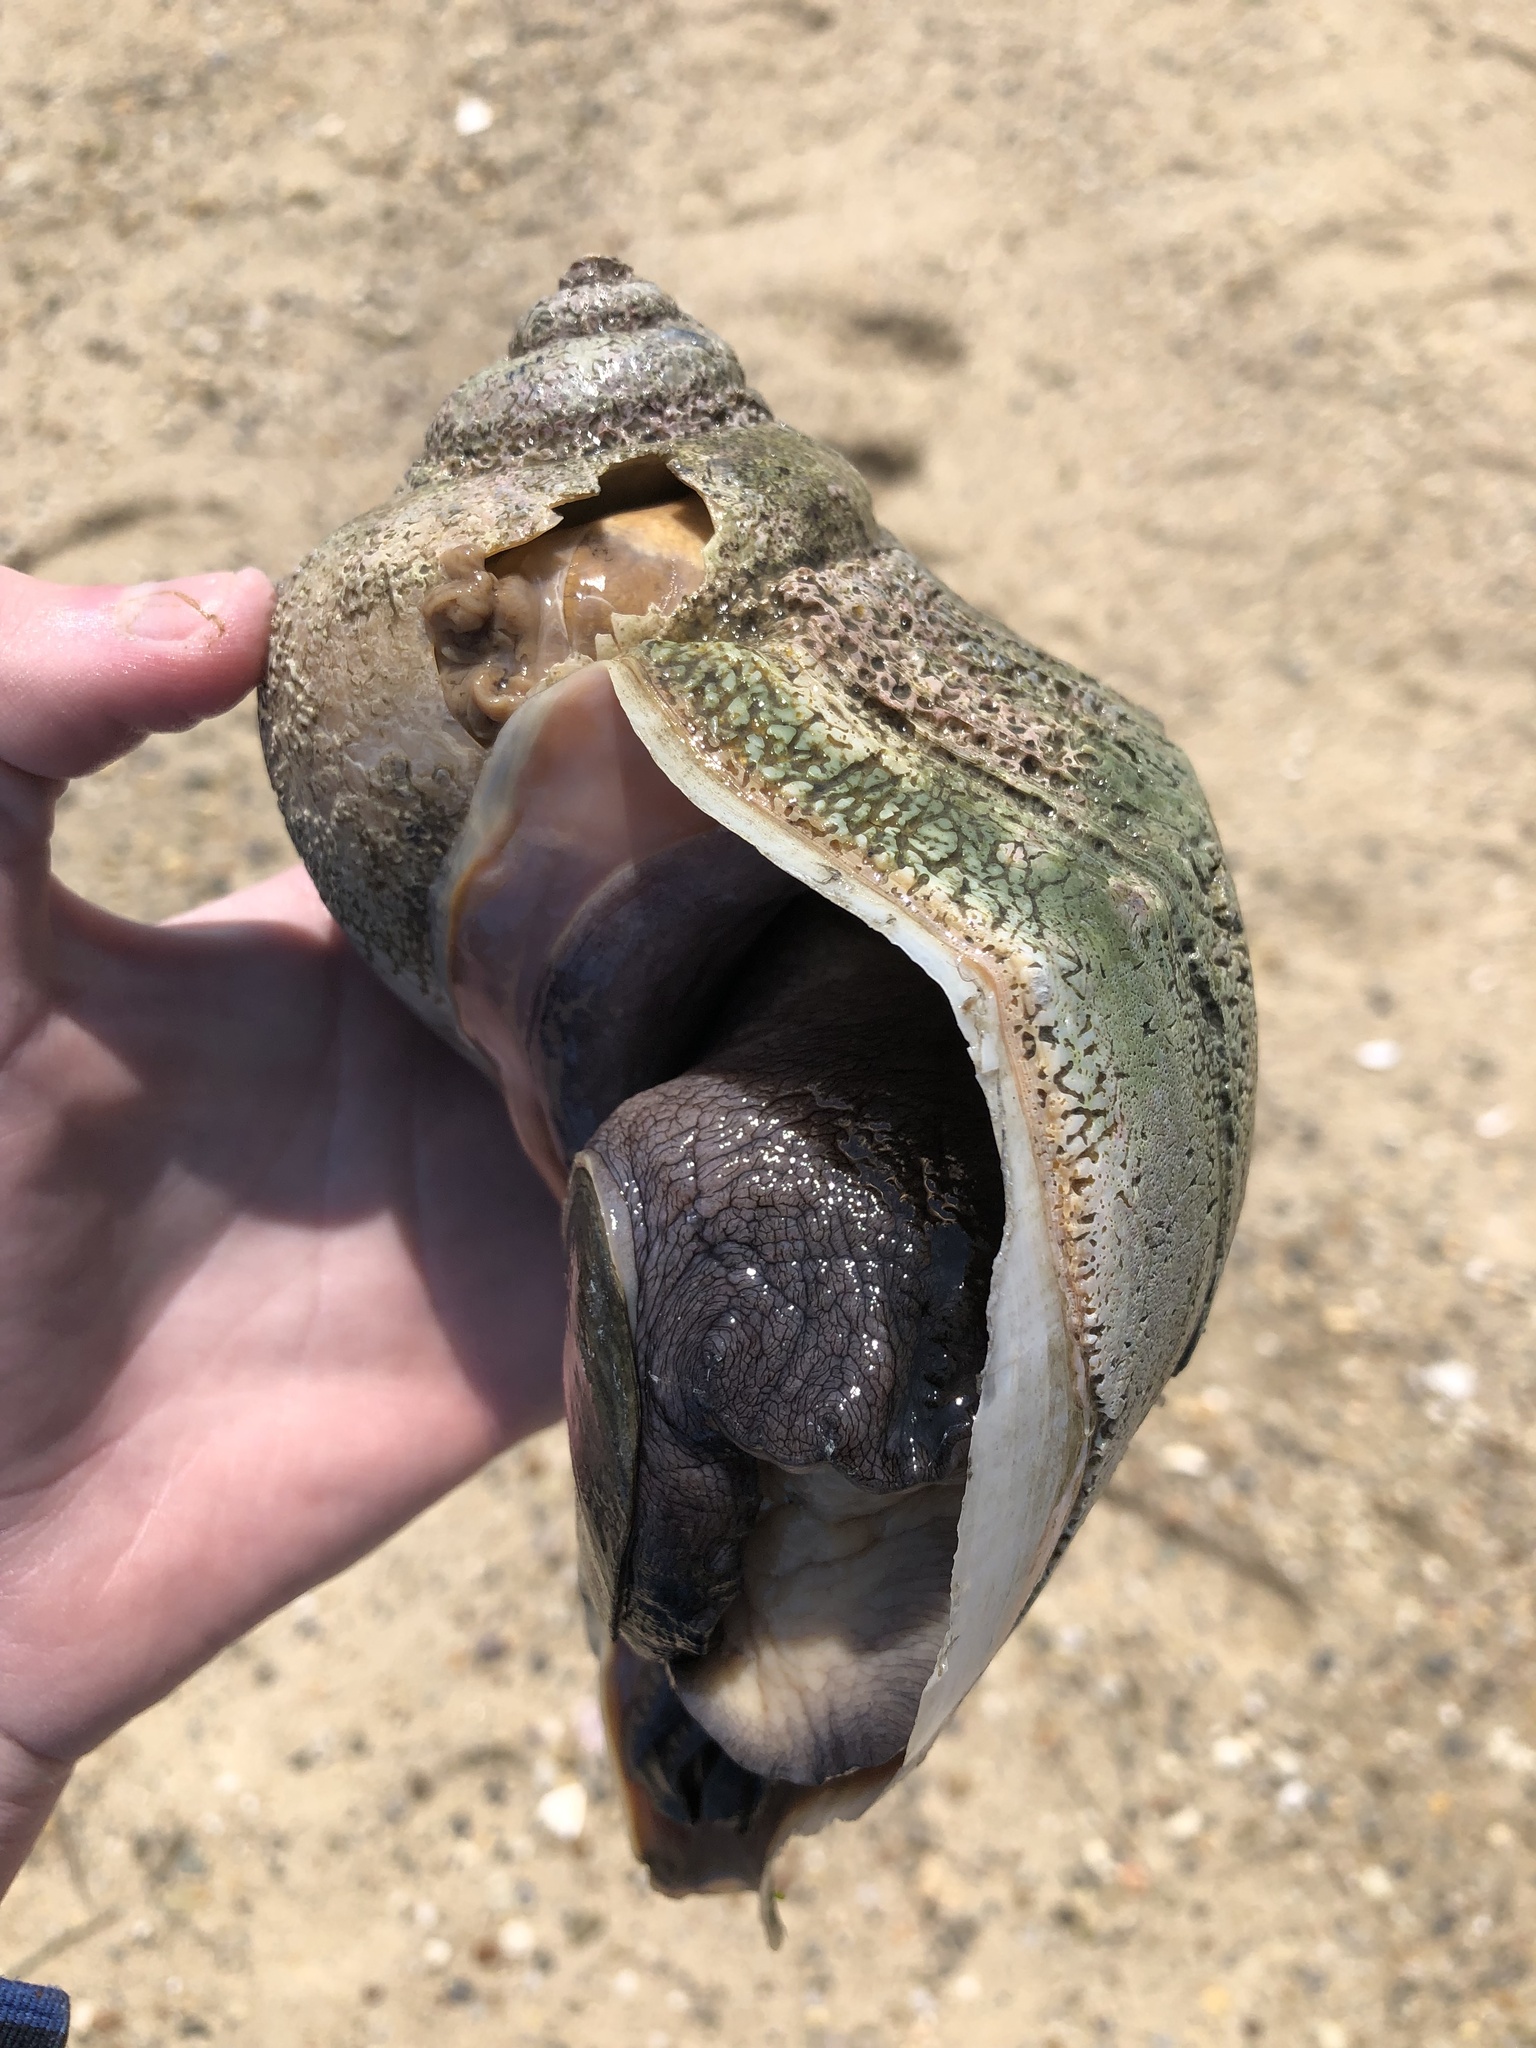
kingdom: Animalia
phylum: Mollusca
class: Gastropoda
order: Neogastropoda
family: Busyconidae
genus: Busycon
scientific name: Busycon carica
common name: Knobbed whelk
